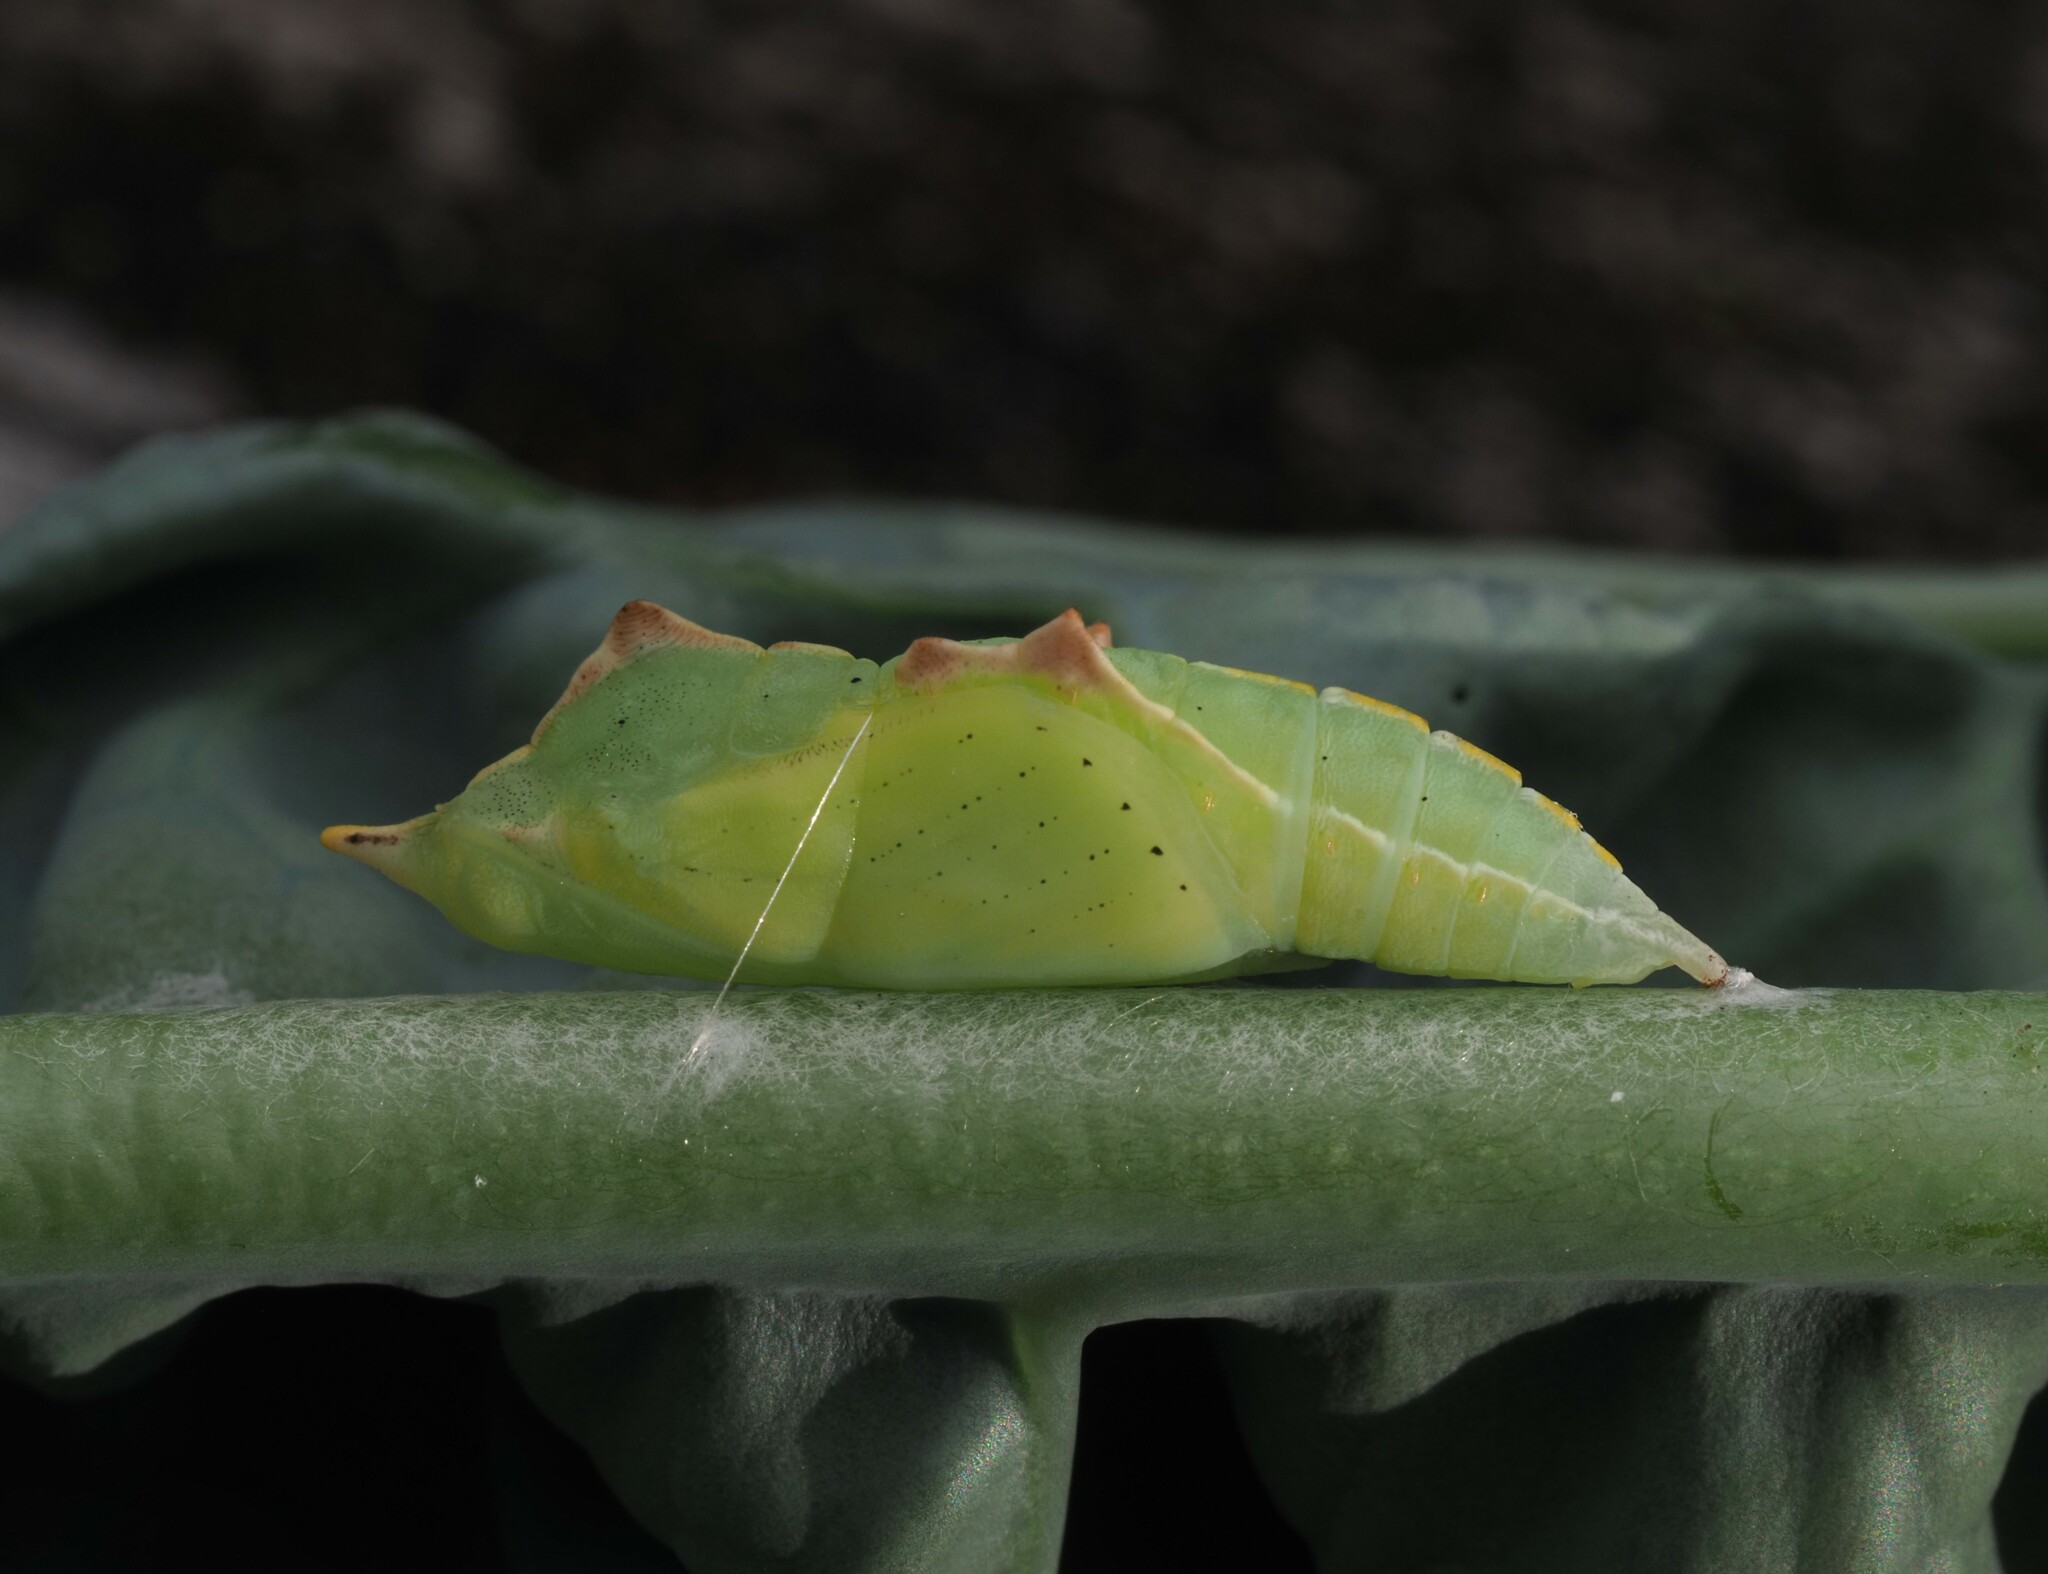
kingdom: Animalia
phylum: Arthropoda
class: Insecta
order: Lepidoptera
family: Pieridae
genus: Pieris
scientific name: Pieris rapae
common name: Small white
